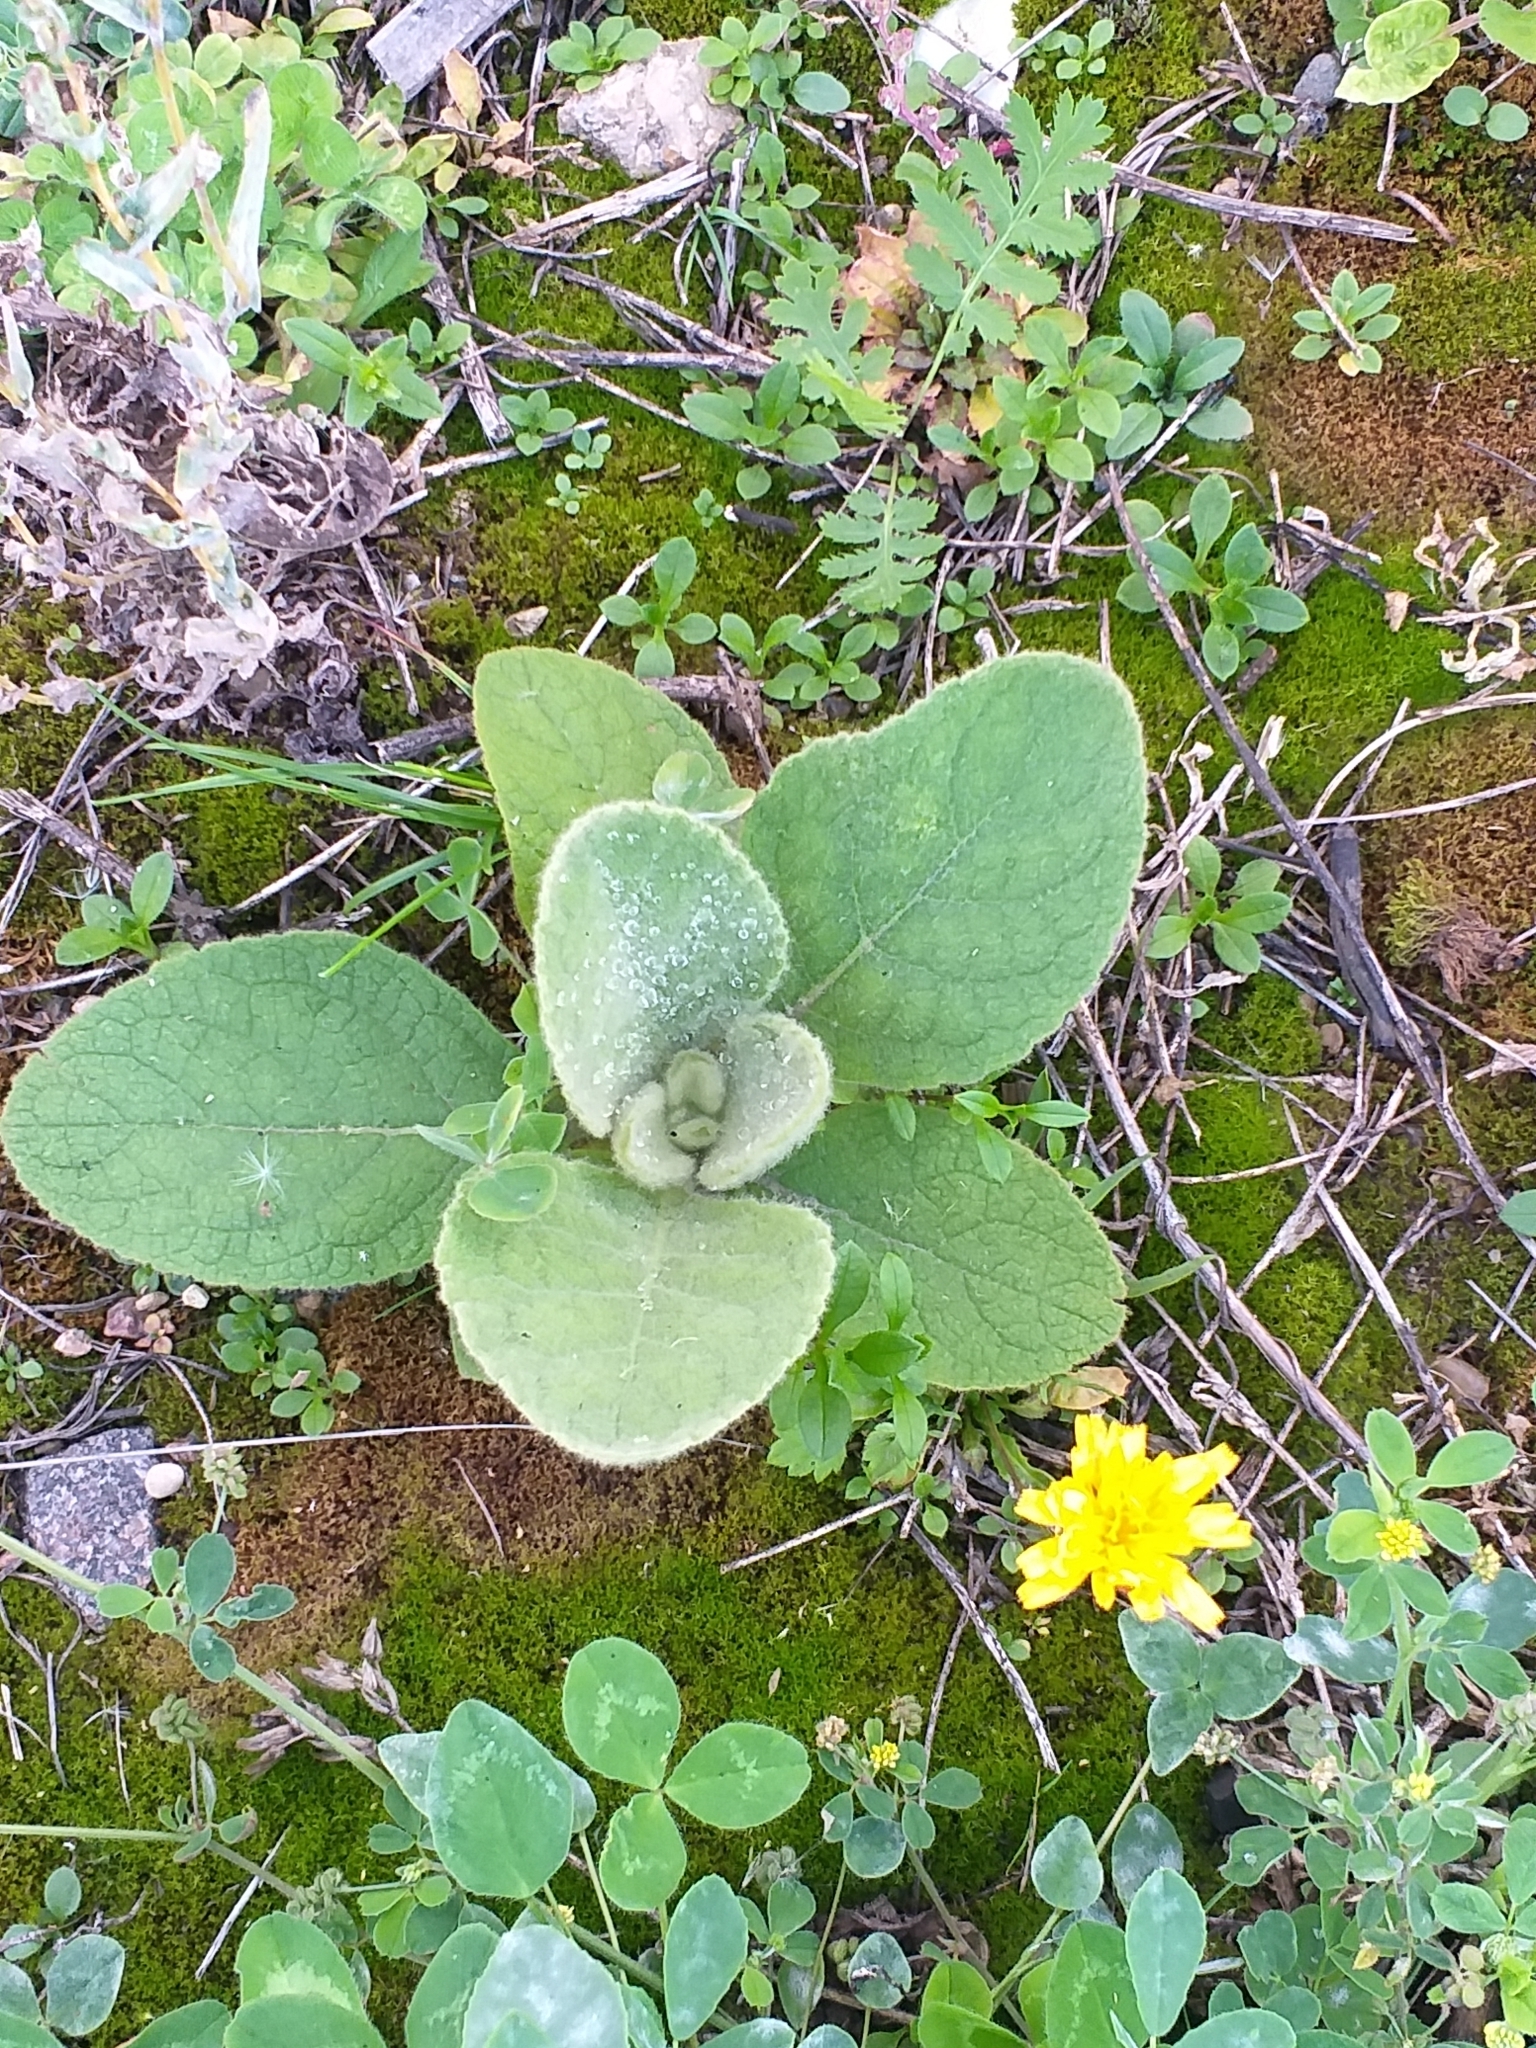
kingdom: Plantae
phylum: Tracheophyta
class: Magnoliopsida
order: Lamiales
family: Scrophulariaceae
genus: Verbascum
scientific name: Verbascum thapsus
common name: Common mullein
